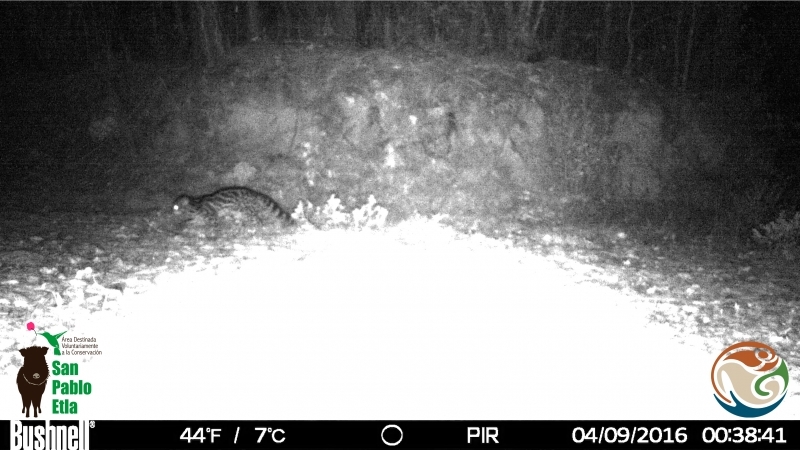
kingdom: Animalia
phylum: Chordata
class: Mammalia
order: Carnivora
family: Felidae
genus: Leopardus
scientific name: Leopardus wiedii
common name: Margay
